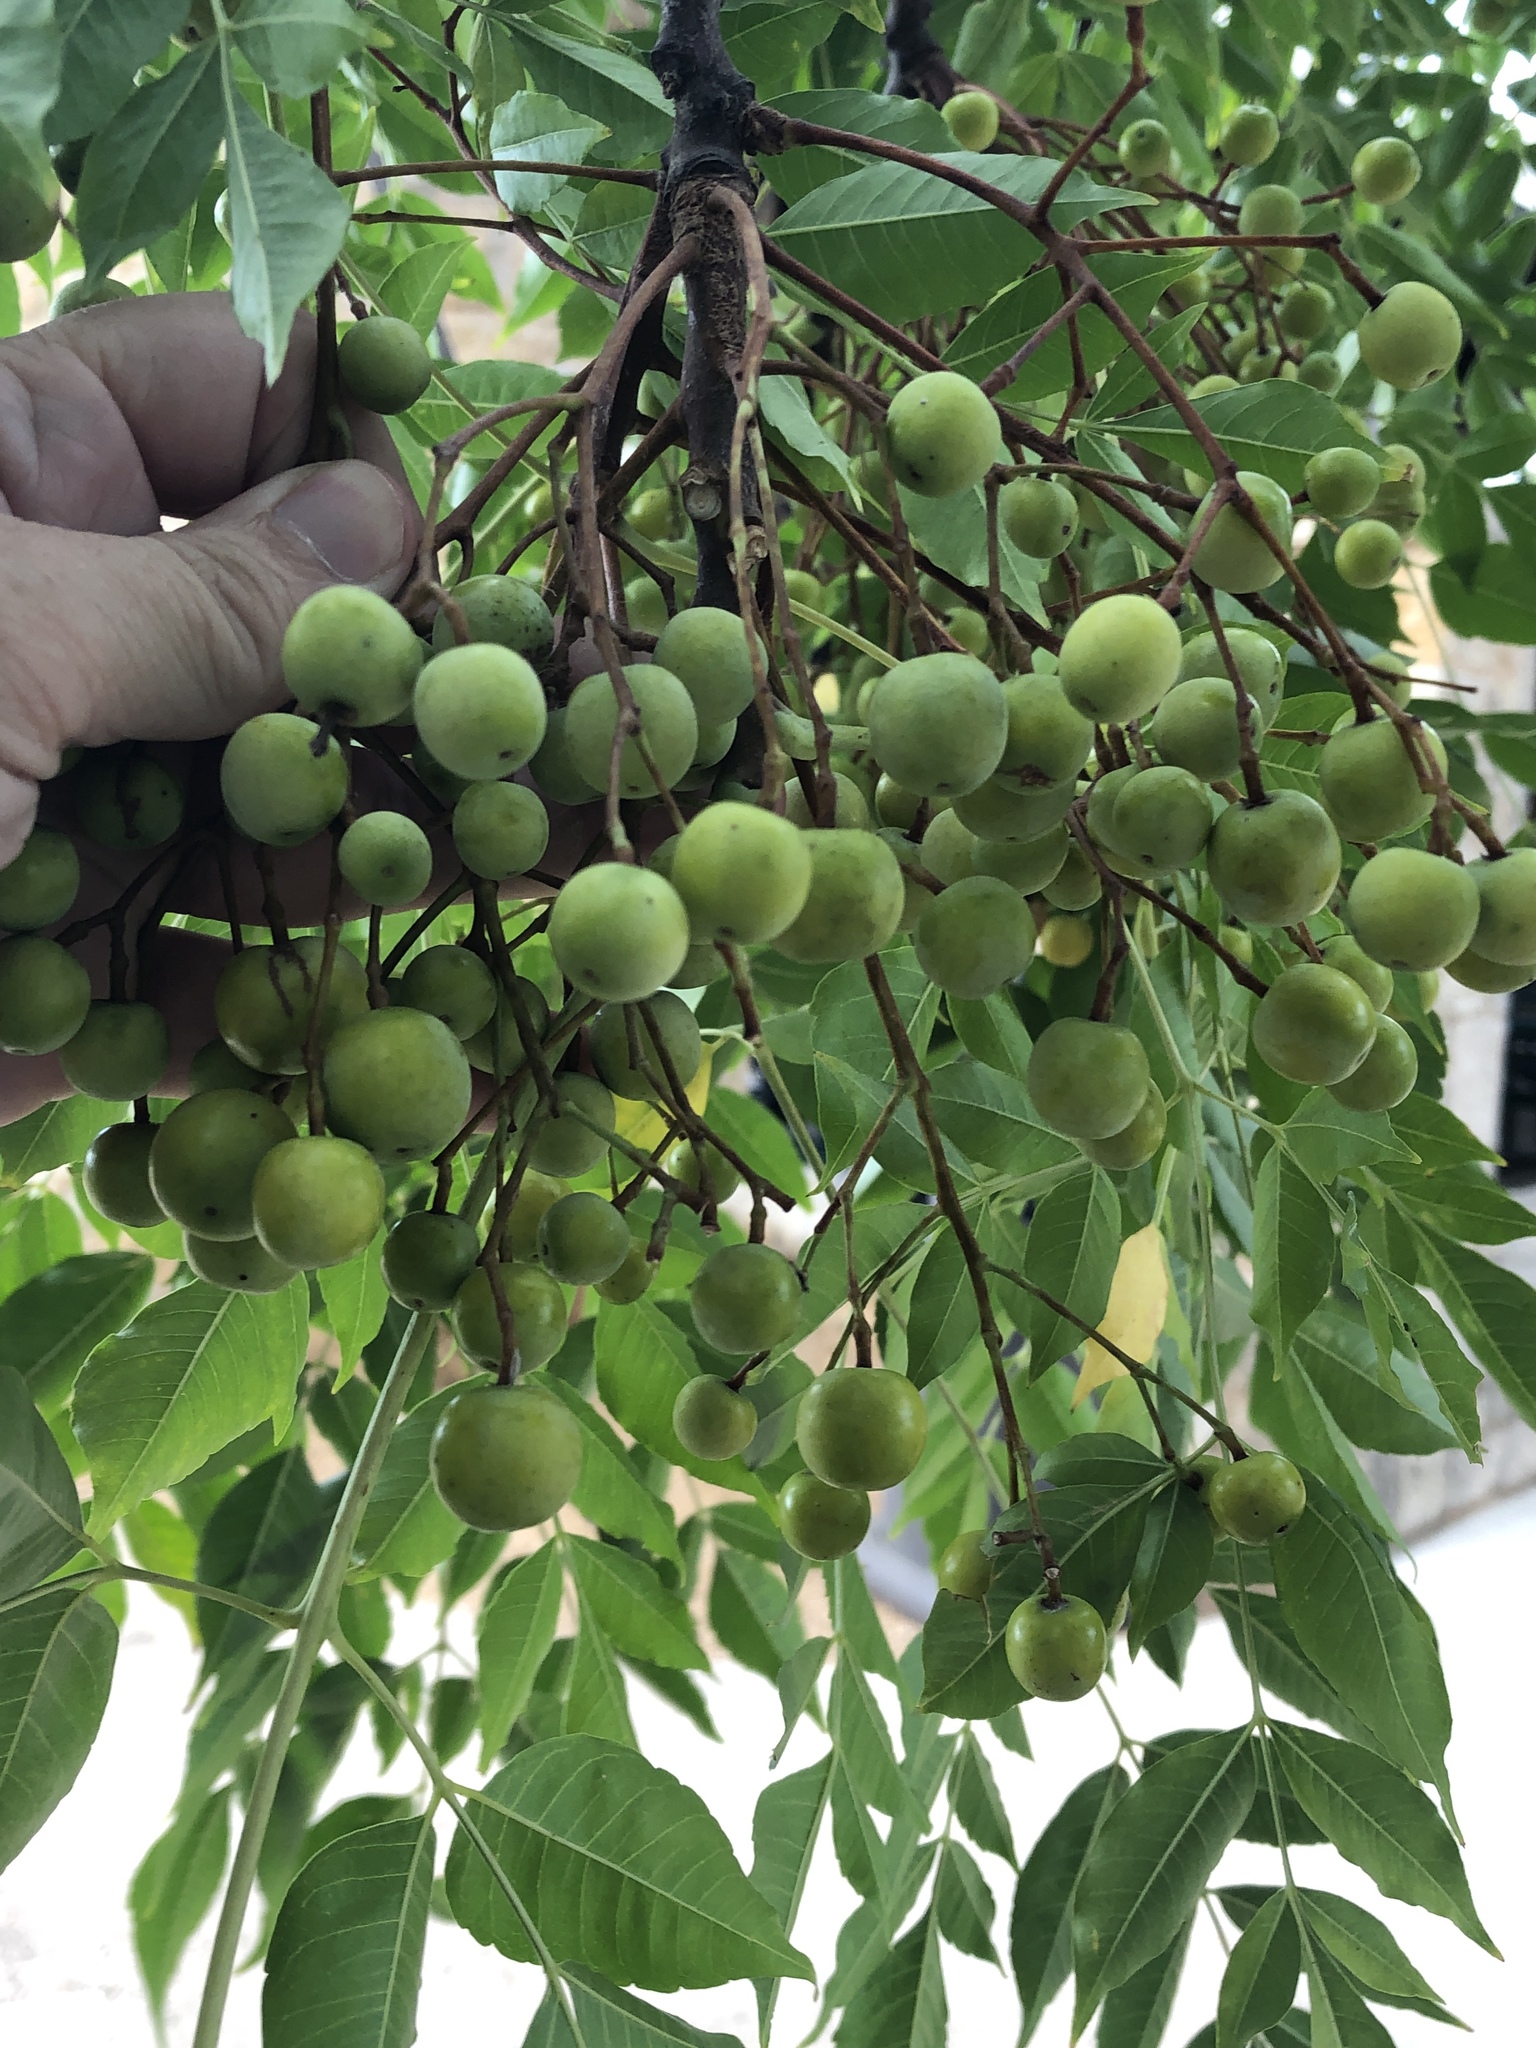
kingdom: Plantae
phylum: Tracheophyta
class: Magnoliopsida
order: Sapindales
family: Meliaceae
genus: Melia
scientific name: Melia azedarach
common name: Chinaberrytree
